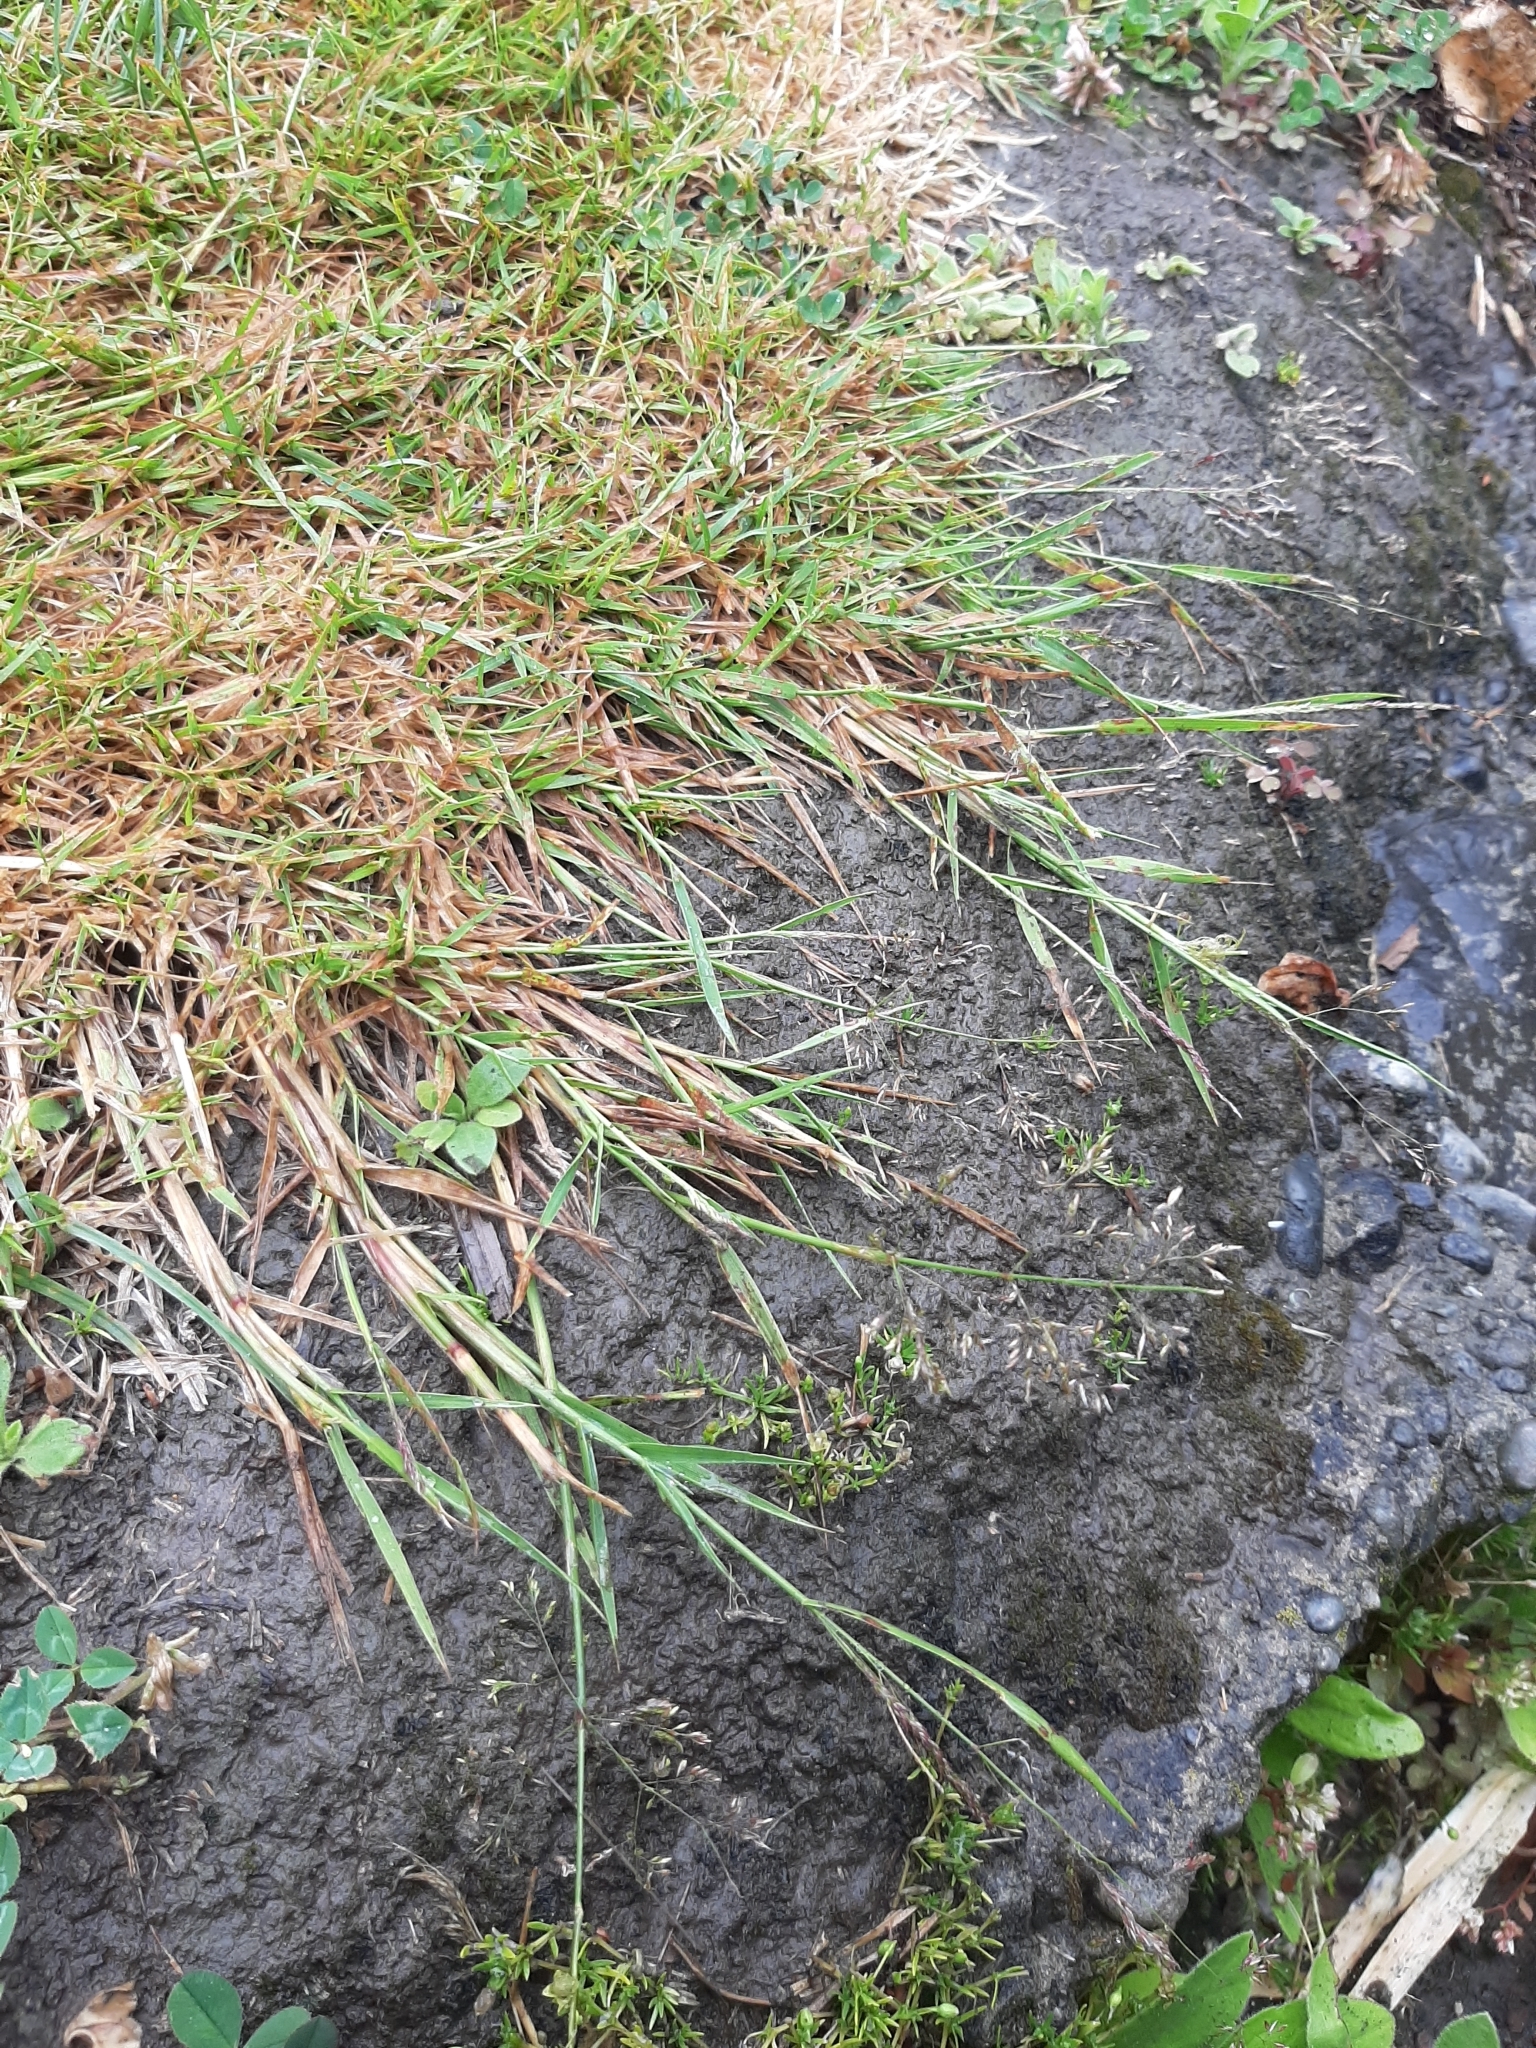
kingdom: Plantae
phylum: Tracheophyta
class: Liliopsida
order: Poales
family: Poaceae
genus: Agrostis
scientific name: Agrostis capillaris
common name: Colonial bentgrass
